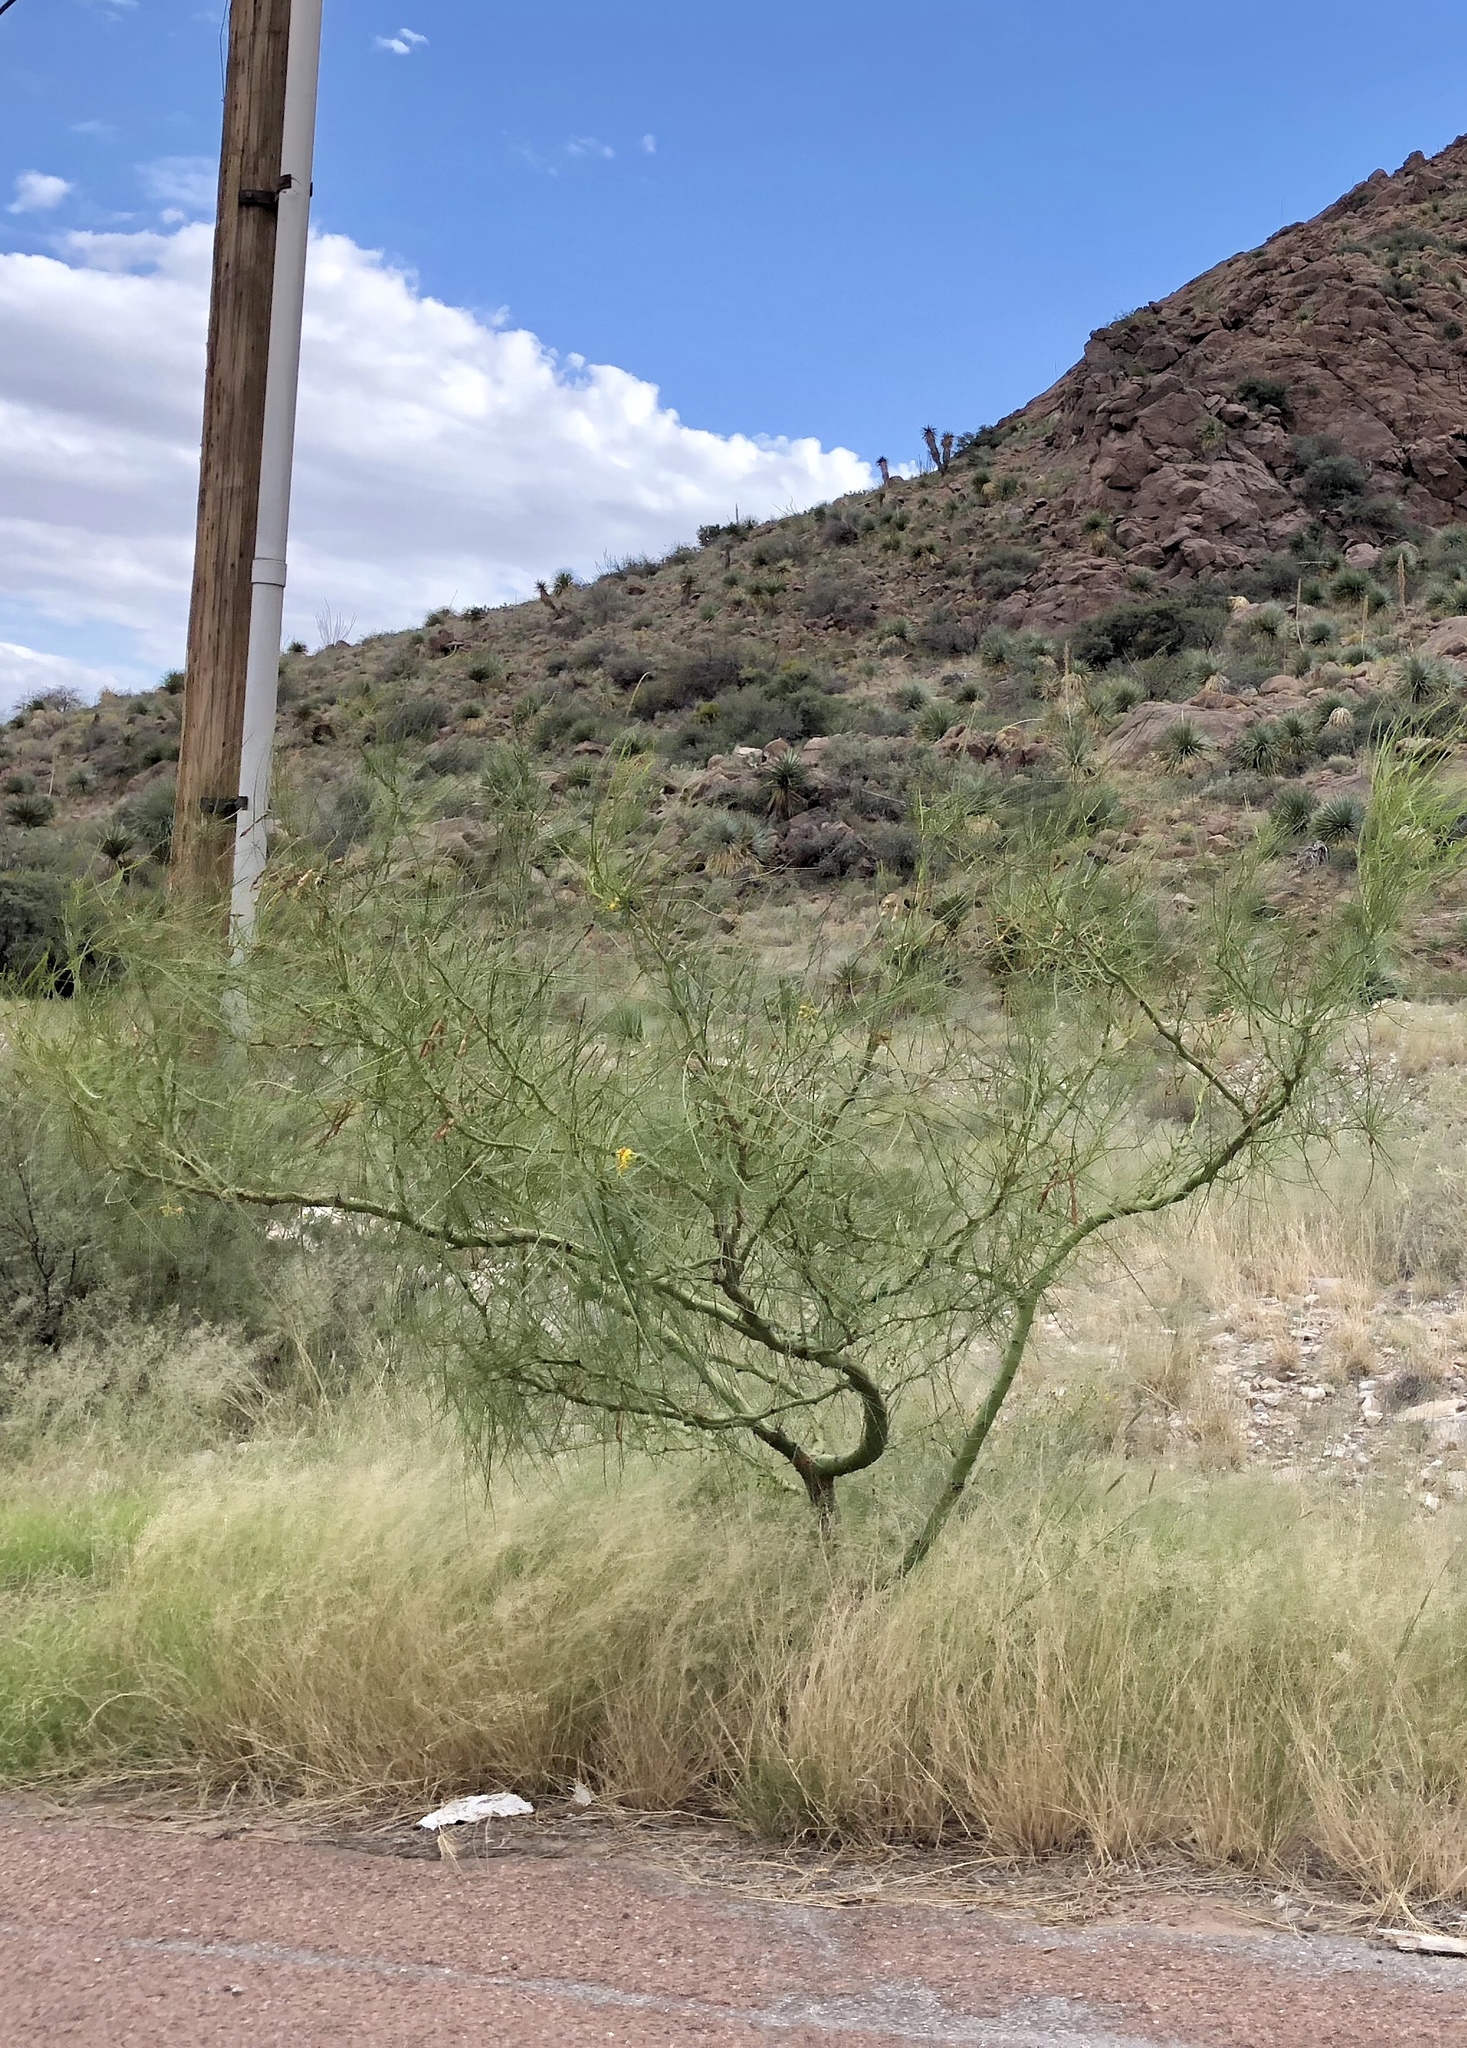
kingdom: Plantae
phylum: Tracheophyta
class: Magnoliopsida
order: Fabales
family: Fabaceae
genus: Parkinsonia
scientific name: Parkinsonia aculeata
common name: Jerusalem thorn
